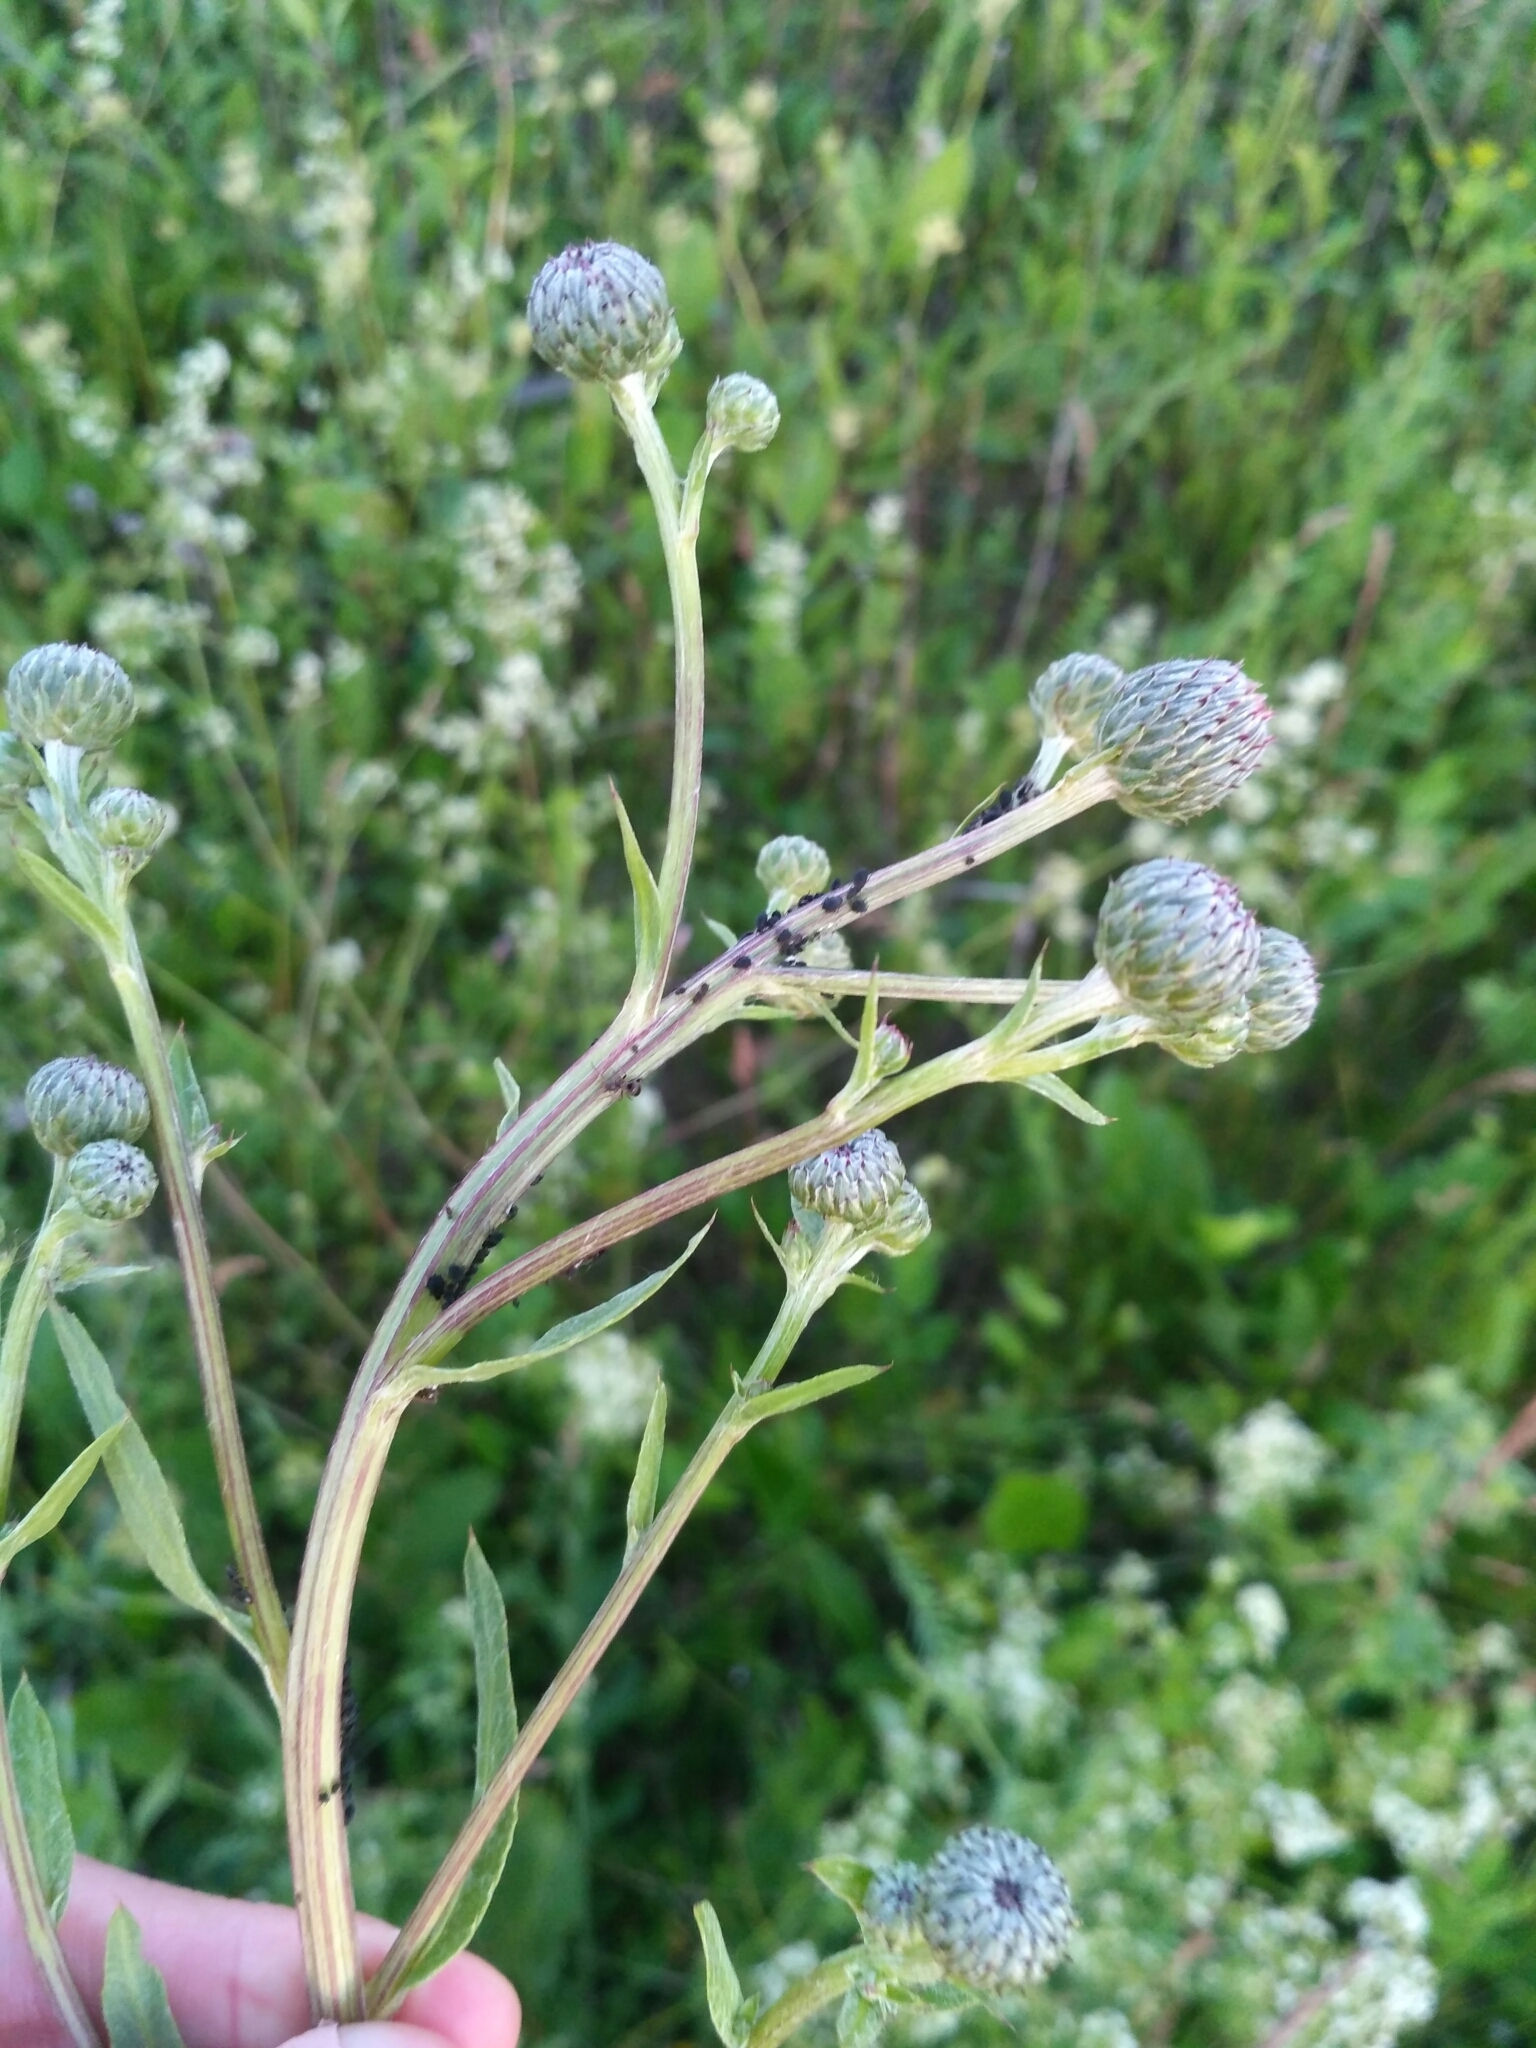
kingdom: Plantae
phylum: Tracheophyta
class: Magnoliopsida
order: Asterales
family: Asteraceae
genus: Cirsium
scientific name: Cirsium arvense
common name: Creeping thistle
